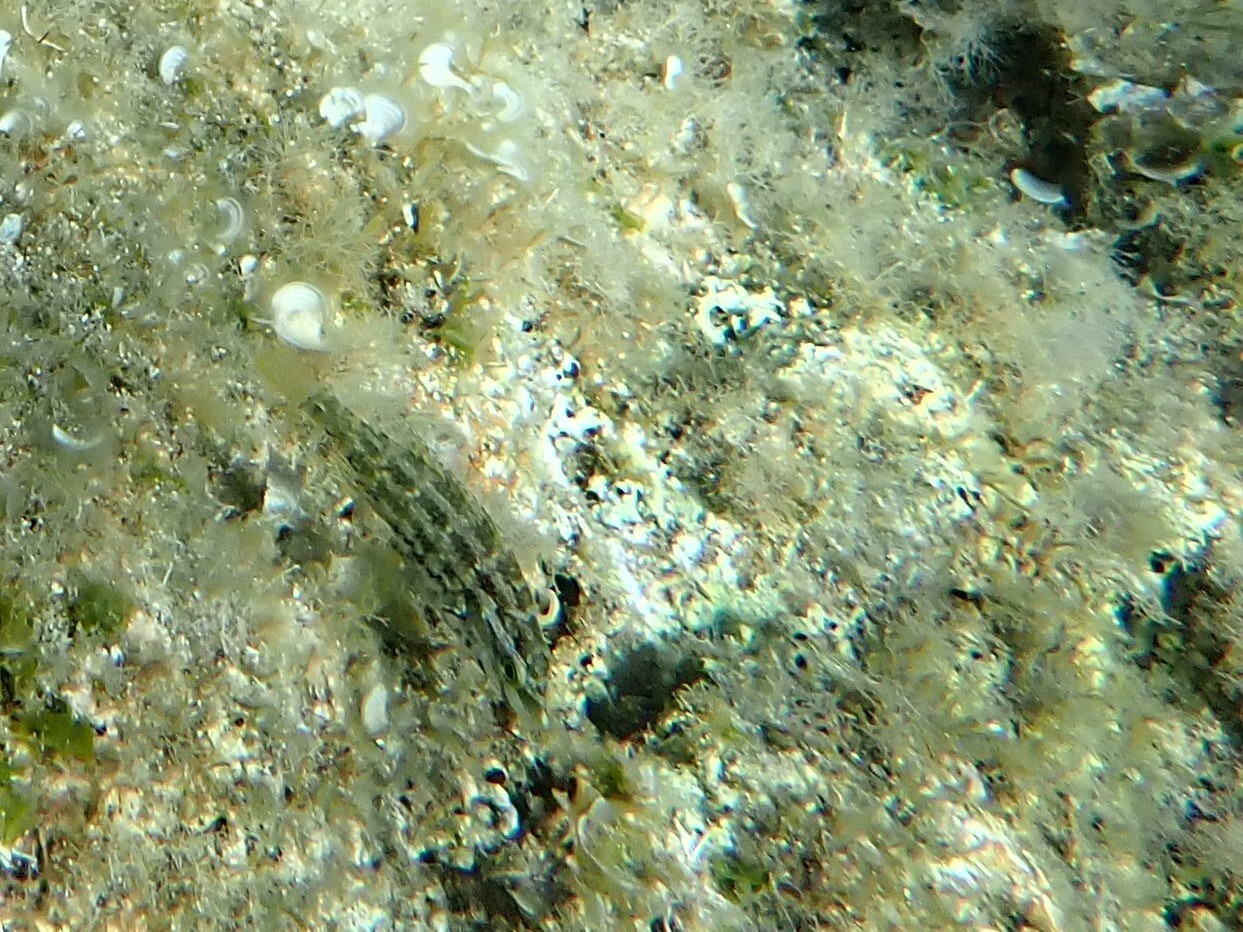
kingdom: Animalia
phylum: Chordata
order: Perciformes
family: Labridae
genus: Symphodus
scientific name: Symphodus roissali
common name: Five-spotted wrasse
